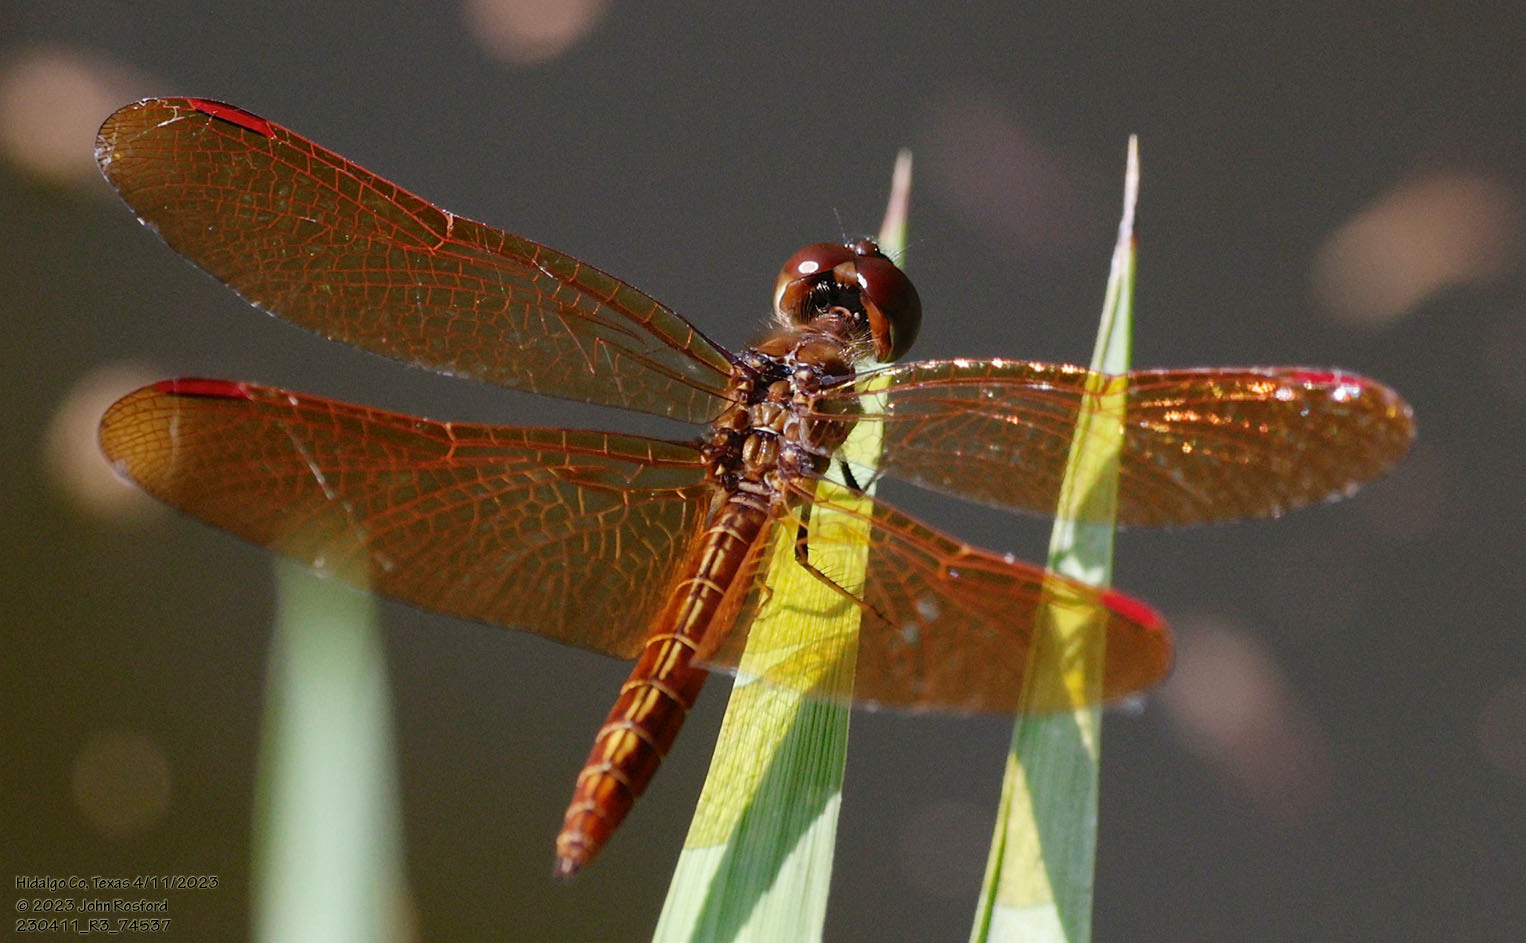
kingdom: Animalia
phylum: Arthropoda
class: Insecta
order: Odonata
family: Libellulidae
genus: Perithemis
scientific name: Perithemis domitia
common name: Slough amberwing
